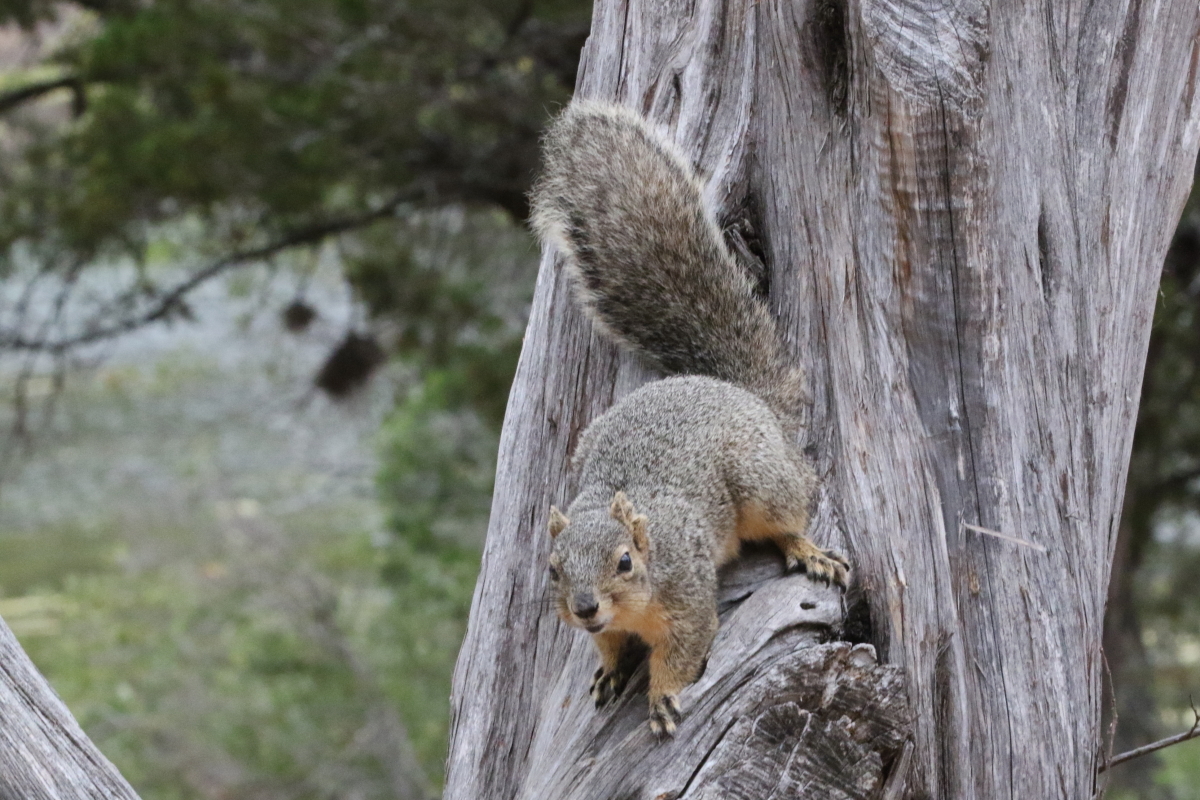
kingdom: Animalia
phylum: Chordata
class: Mammalia
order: Rodentia
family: Sciuridae
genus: Sciurus
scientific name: Sciurus niger
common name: Fox squirrel
